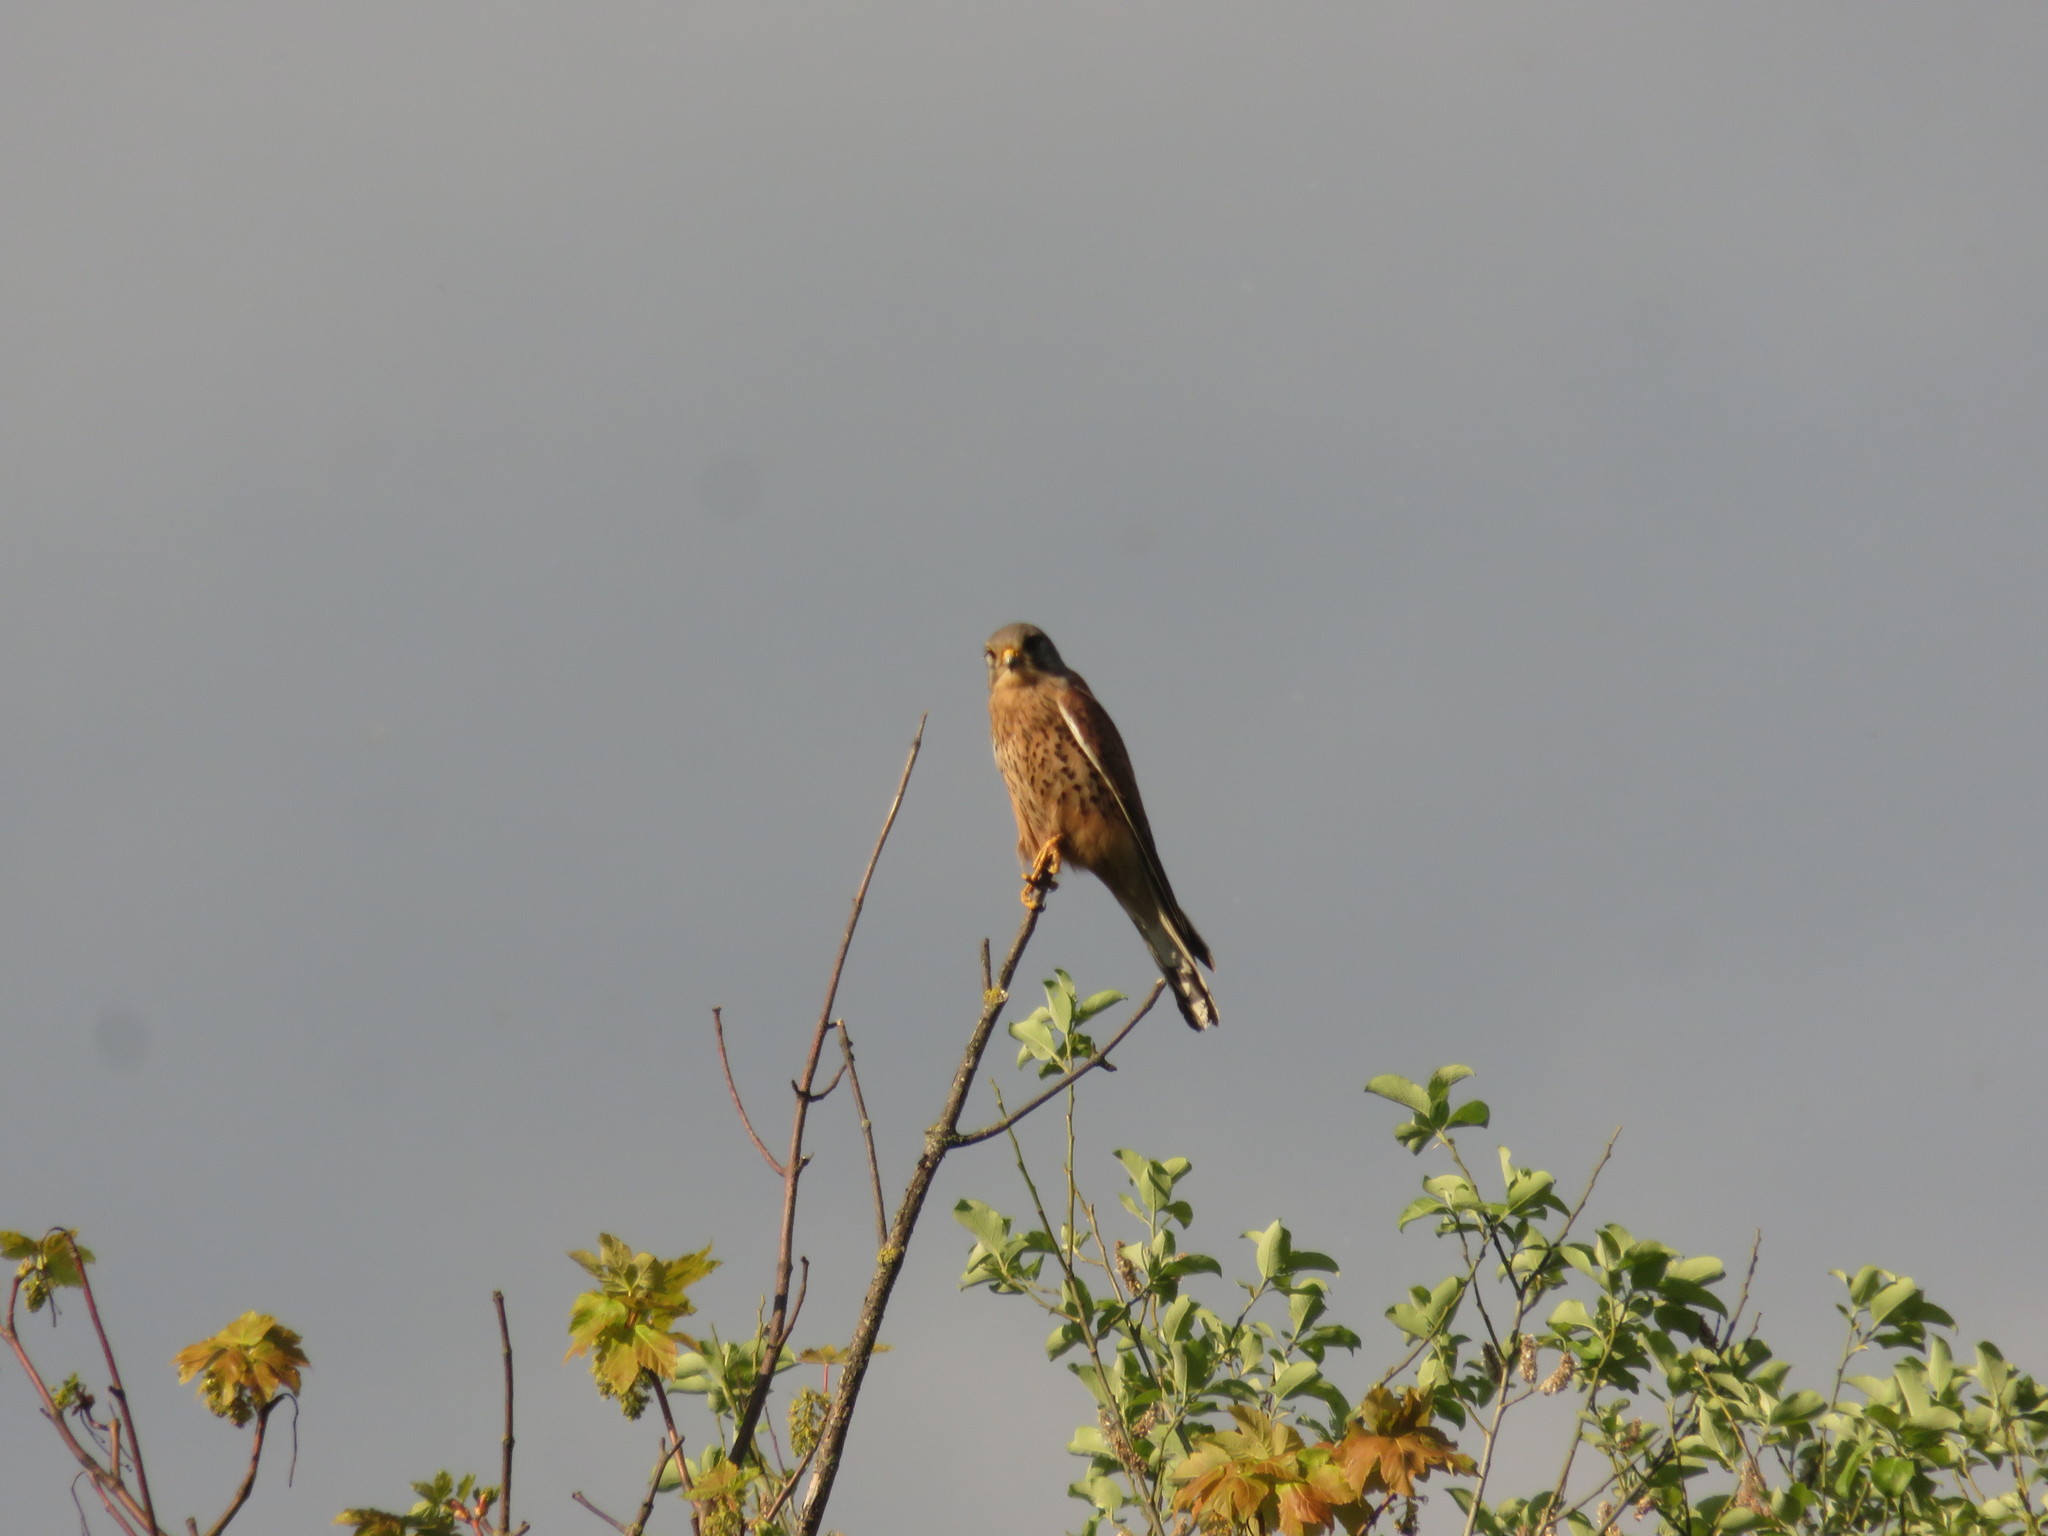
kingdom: Animalia
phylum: Chordata
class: Aves
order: Falconiformes
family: Falconidae
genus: Falco
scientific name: Falco tinnunculus
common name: Common kestrel
